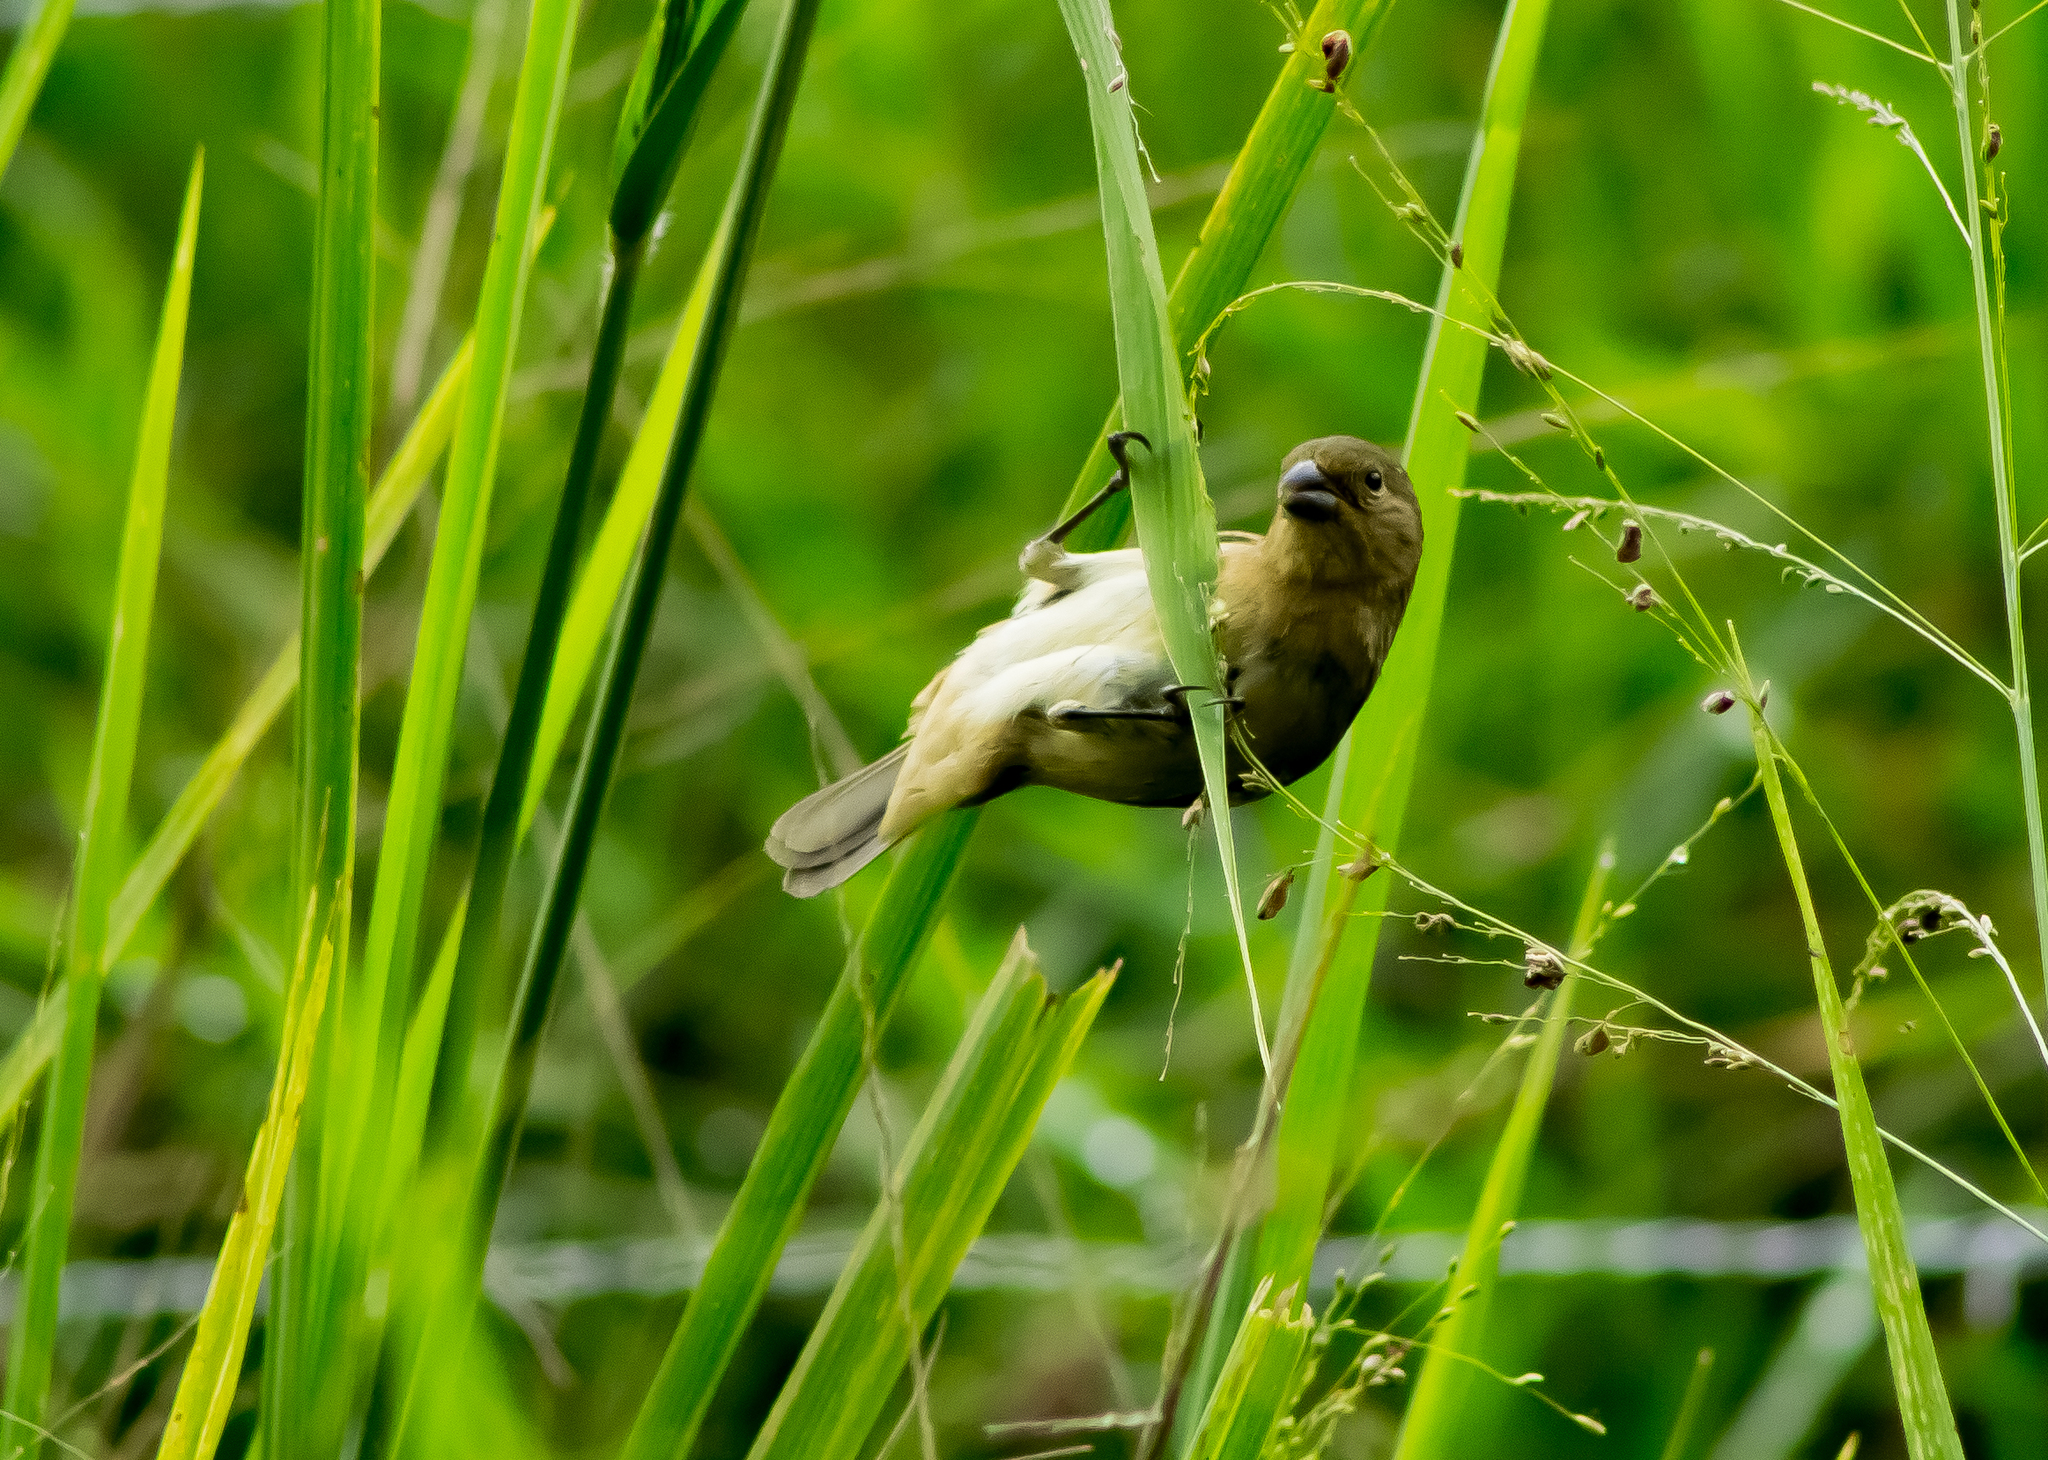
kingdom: Animalia
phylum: Chordata
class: Aves
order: Passeriformes
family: Thraupidae
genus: Sporophila
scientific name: Sporophila corvina
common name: Variable seedeater
